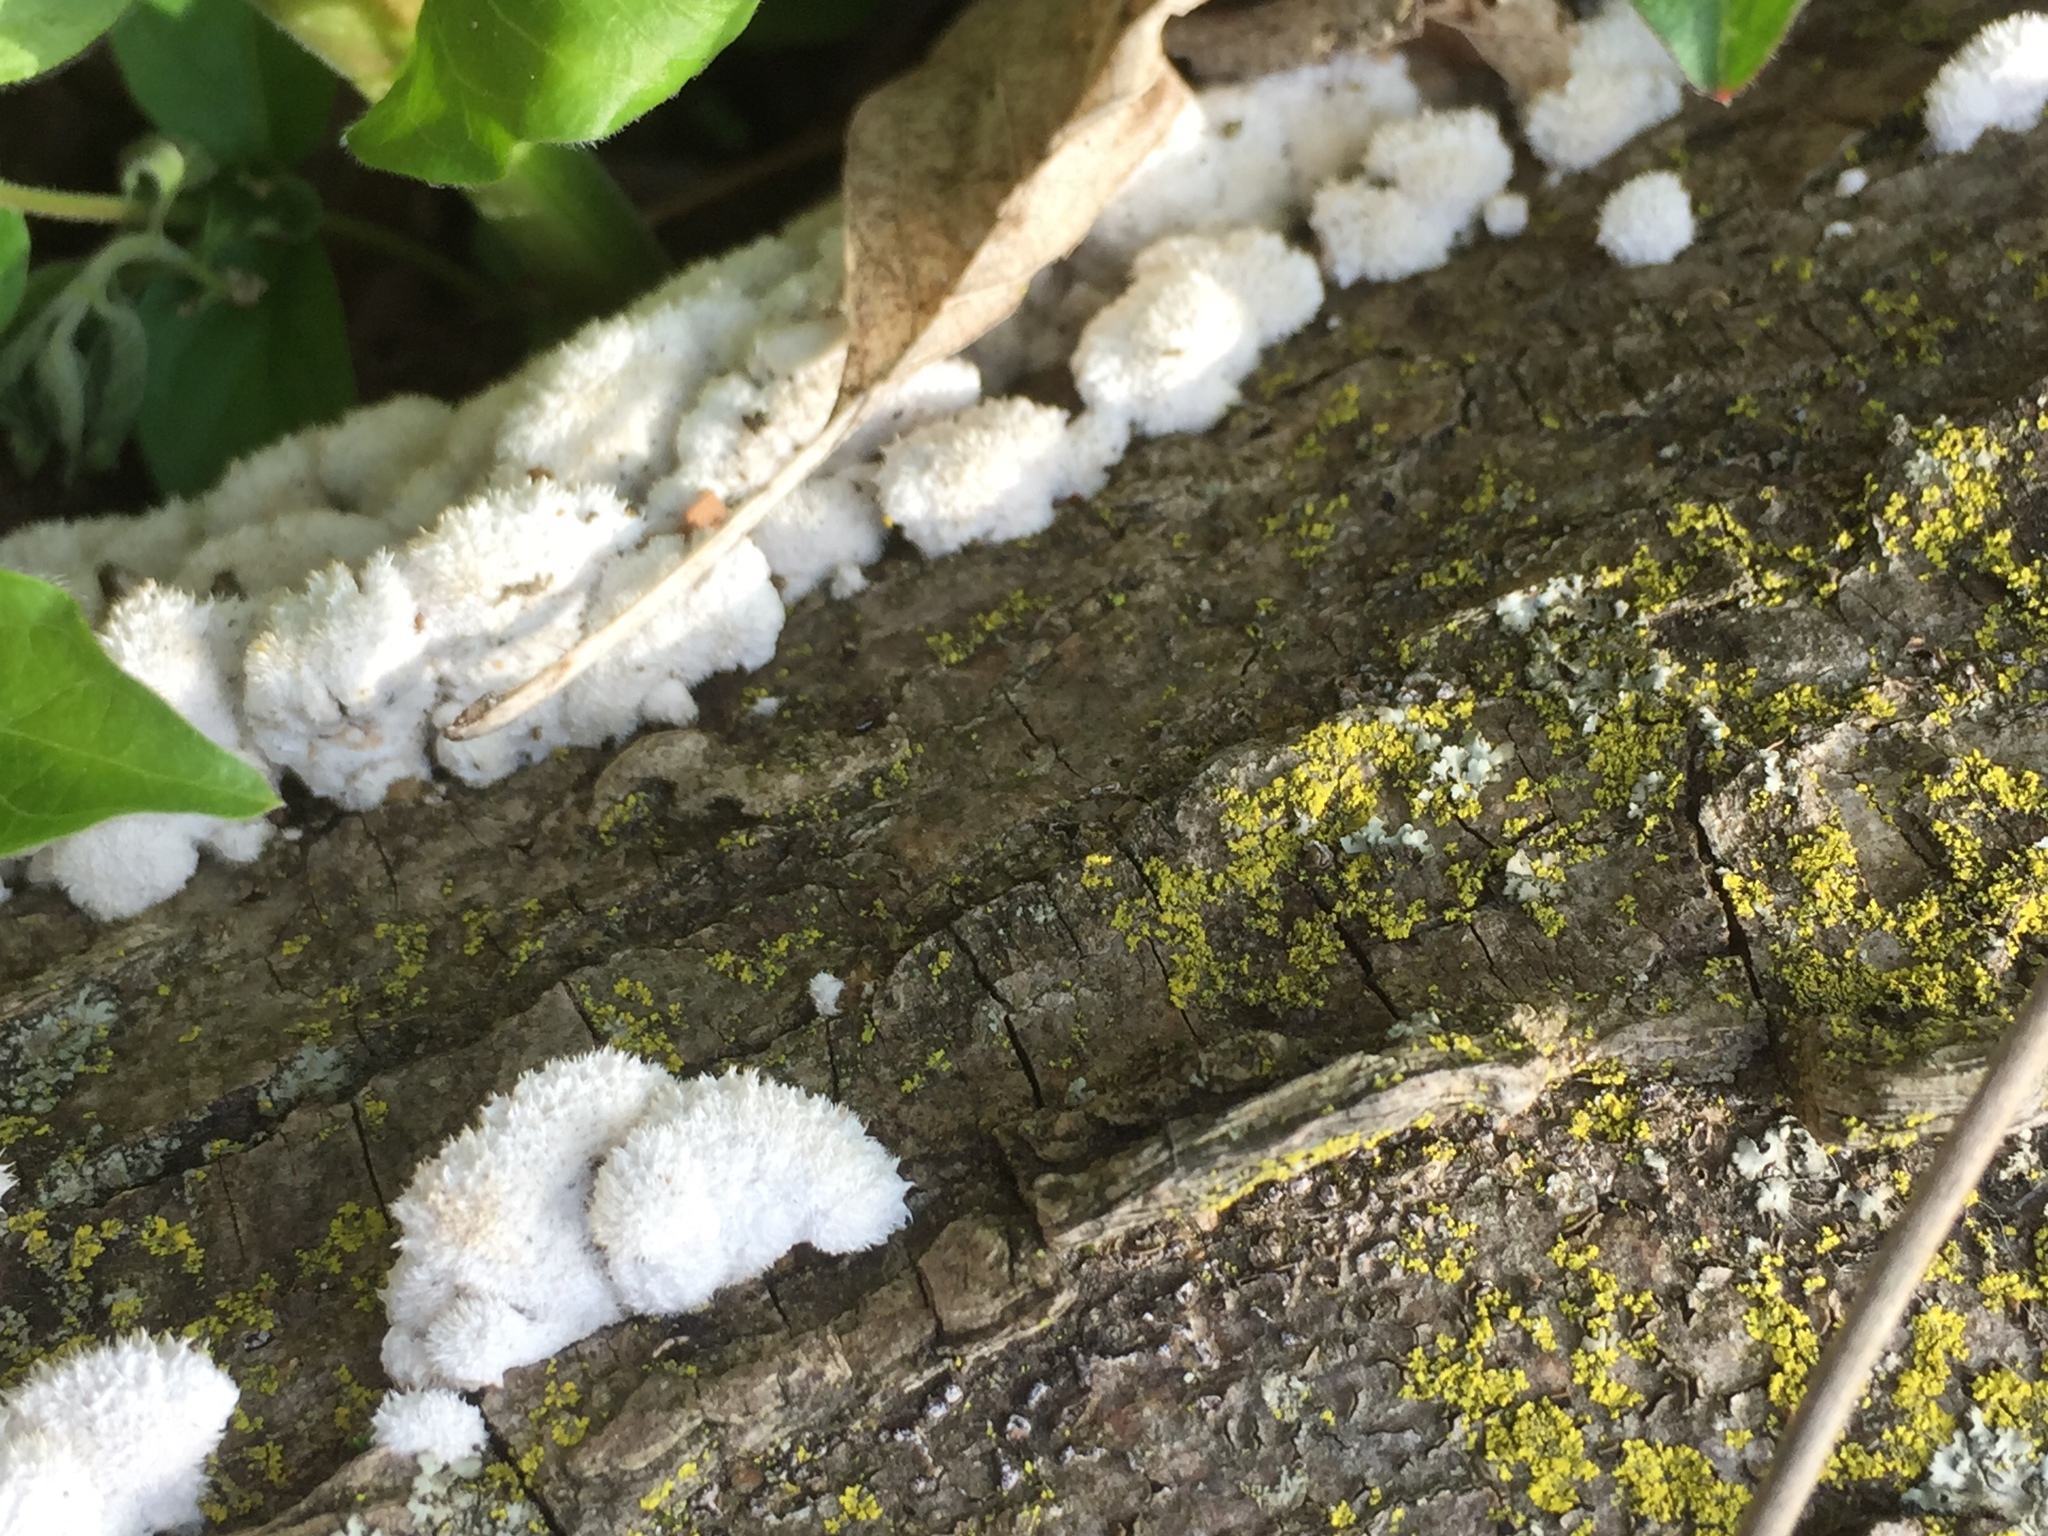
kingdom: Fungi
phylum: Basidiomycota
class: Agaricomycetes
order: Agaricales
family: Schizophyllaceae
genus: Schizophyllum
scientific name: Schizophyllum commune
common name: Common porecrust
